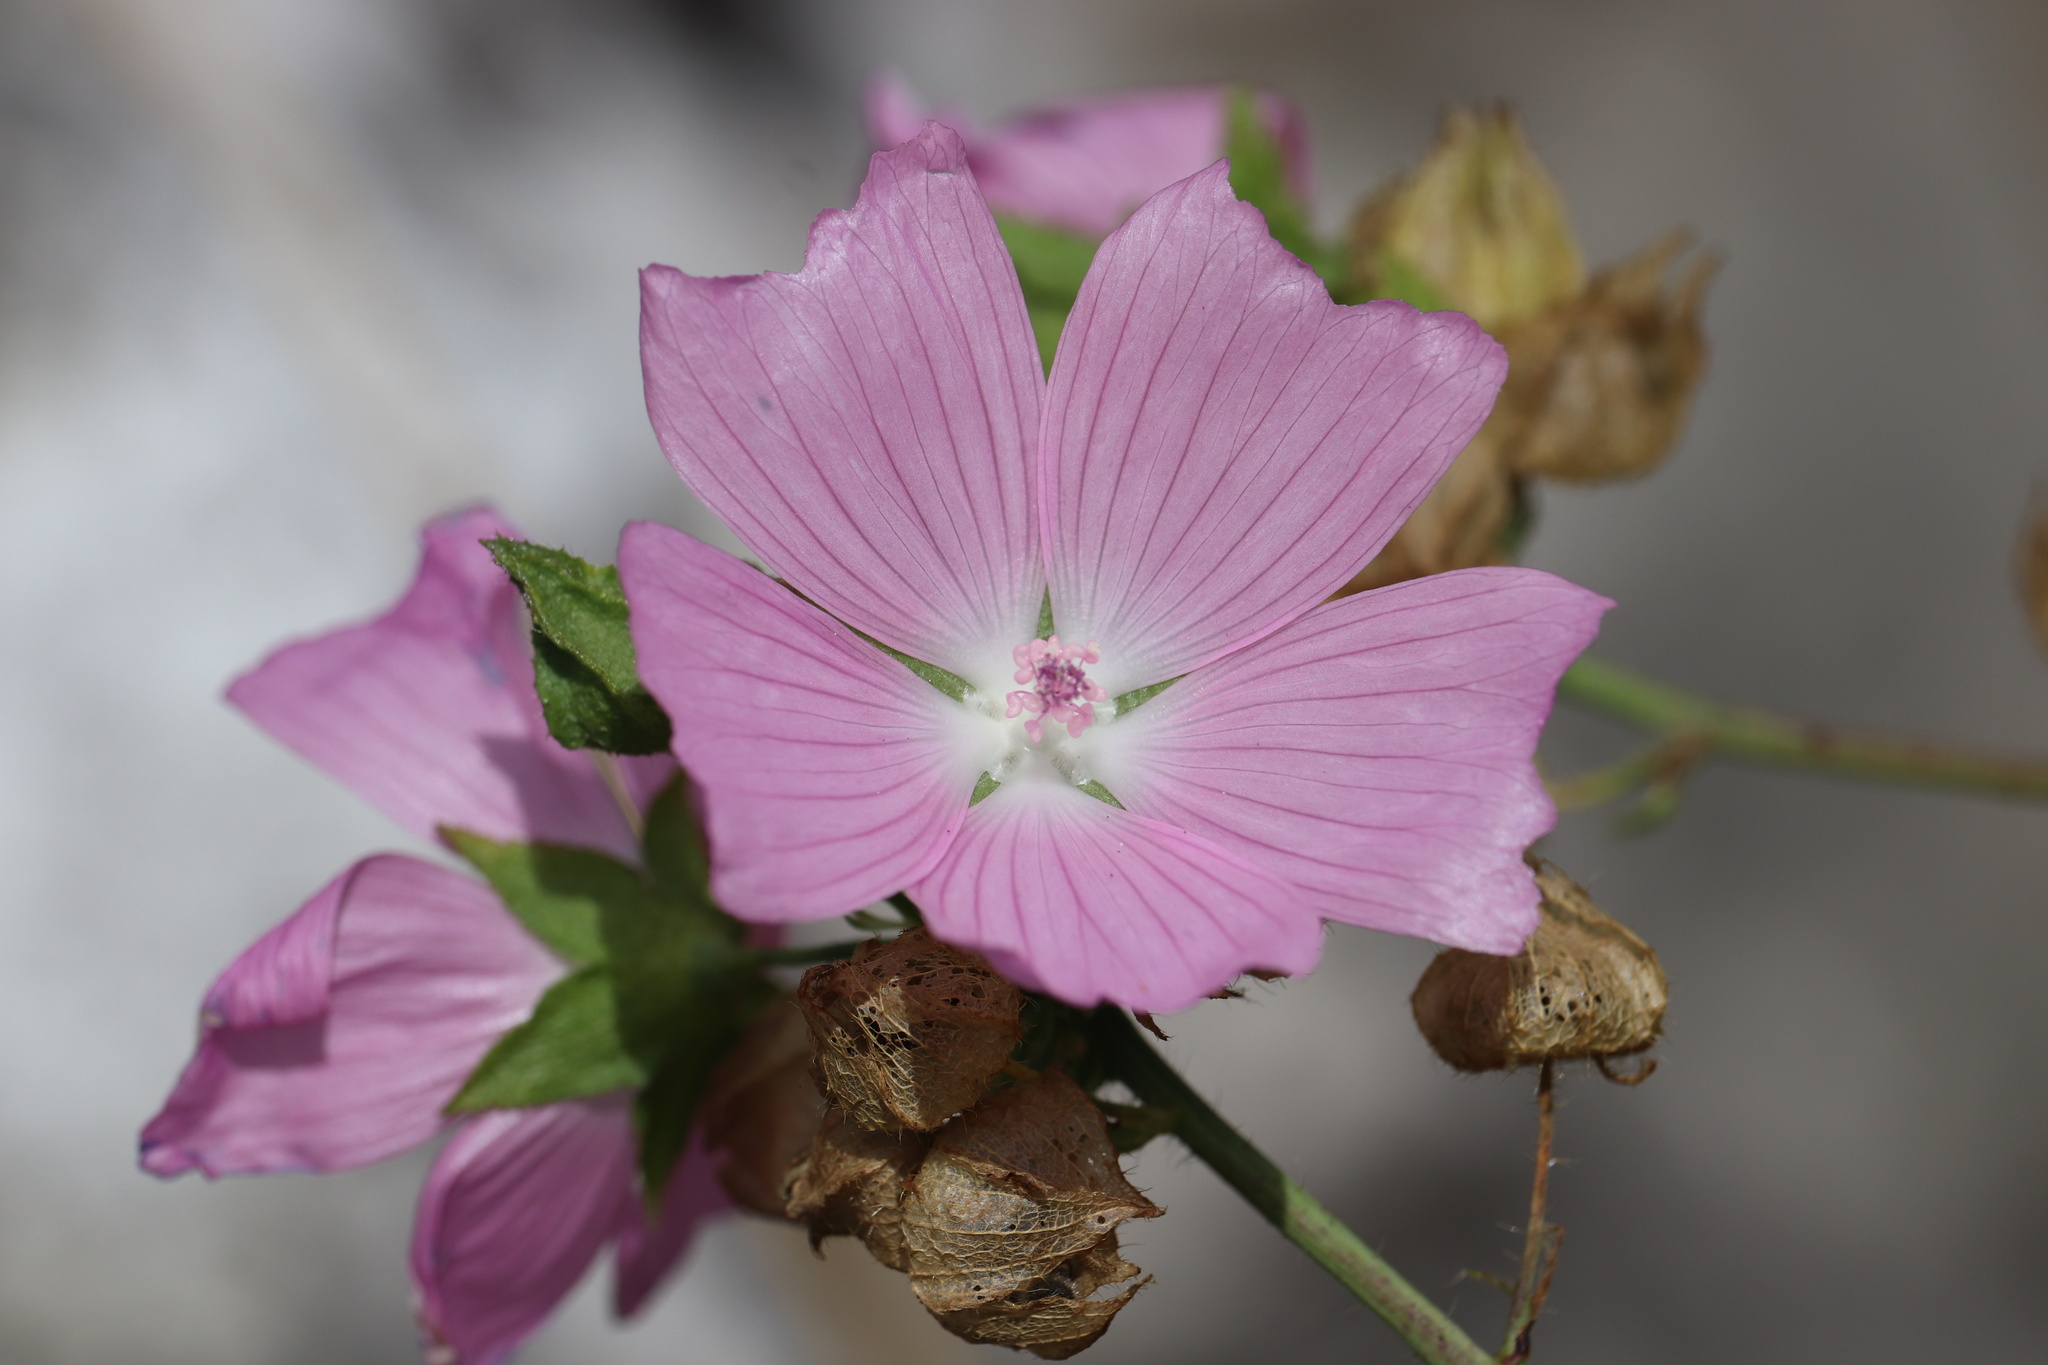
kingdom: Plantae
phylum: Tracheophyta
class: Magnoliopsida
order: Malvales
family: Malvaceae
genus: Malva
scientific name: Malva moschata
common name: Musk mallow
